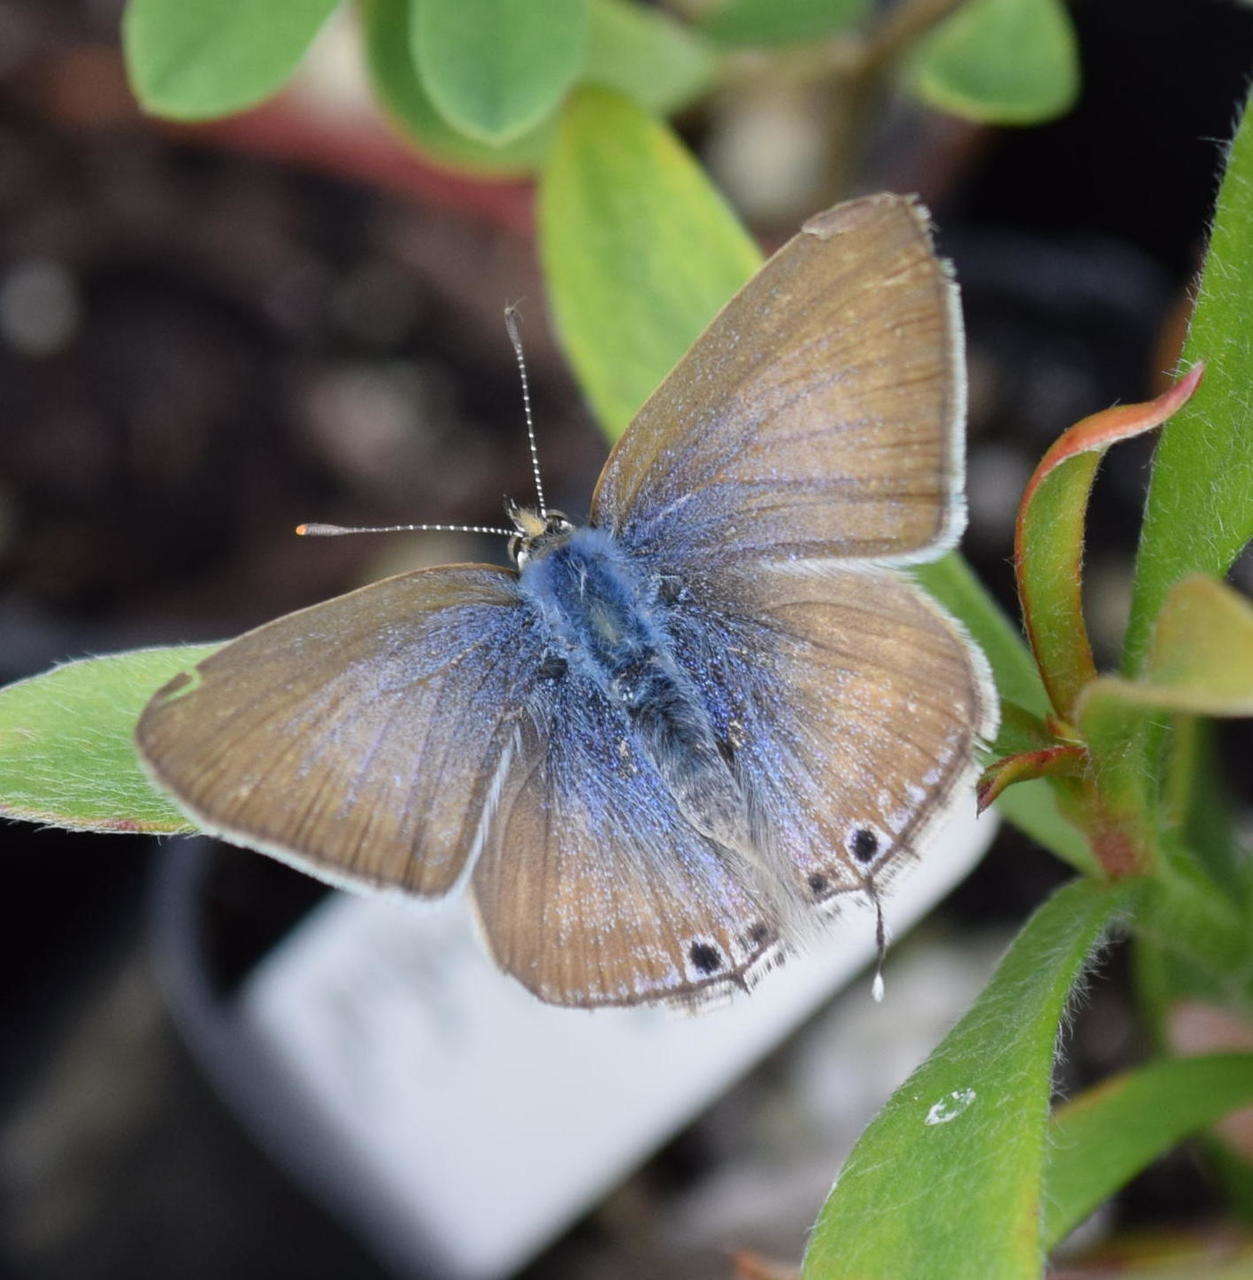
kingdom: Animalia
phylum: Arthropoda
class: Insecta
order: Lepidoptera
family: Lycaenidae
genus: Lampides
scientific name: Lampides boeticus
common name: Long-tailed blue
